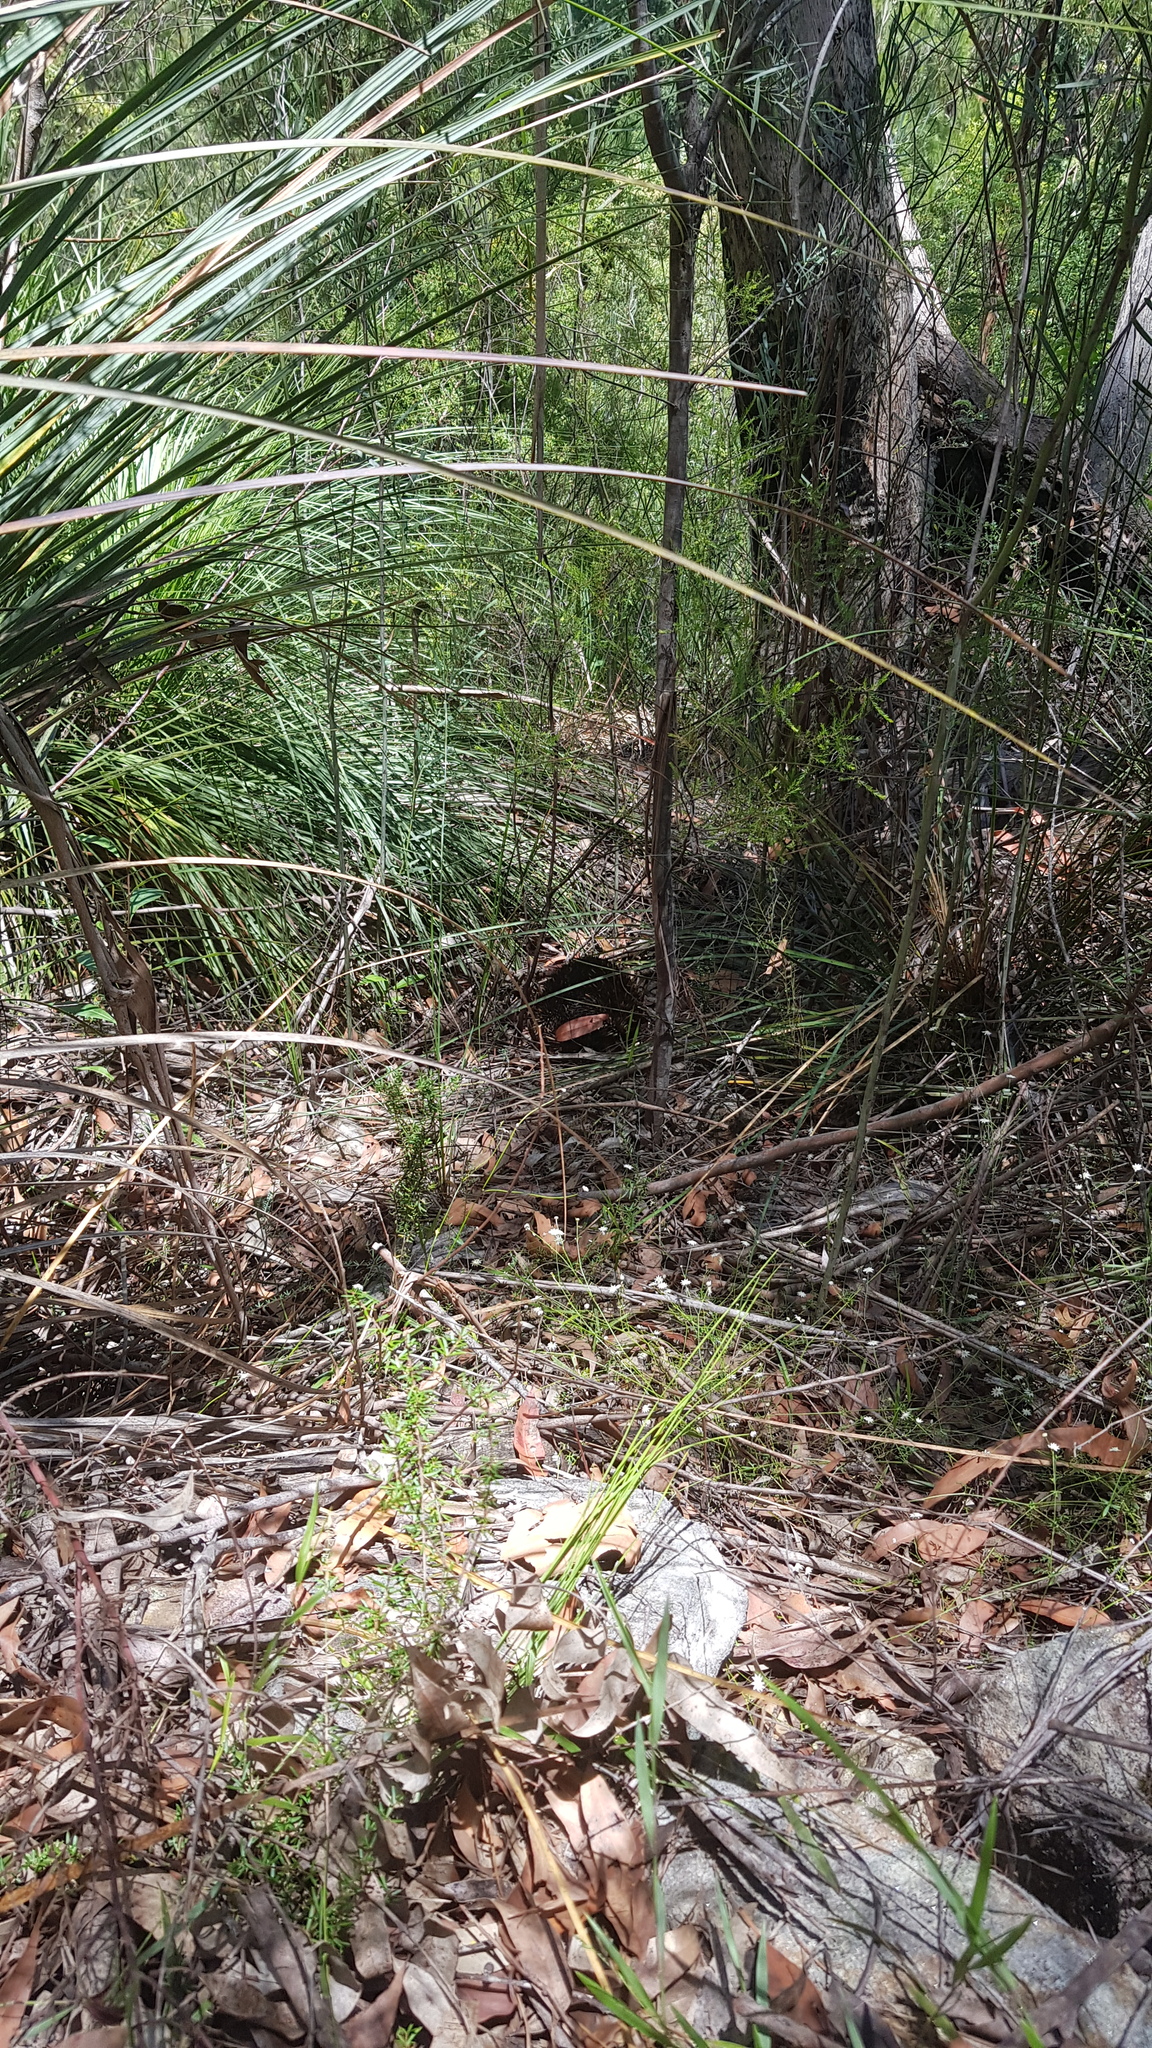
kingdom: Animalia
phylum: Chordata
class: Mammalia
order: Monotremata
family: Tachyglossidae
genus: Tachyglossus
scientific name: Tachyglossus aculeatus
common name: Short-beaked echidna
